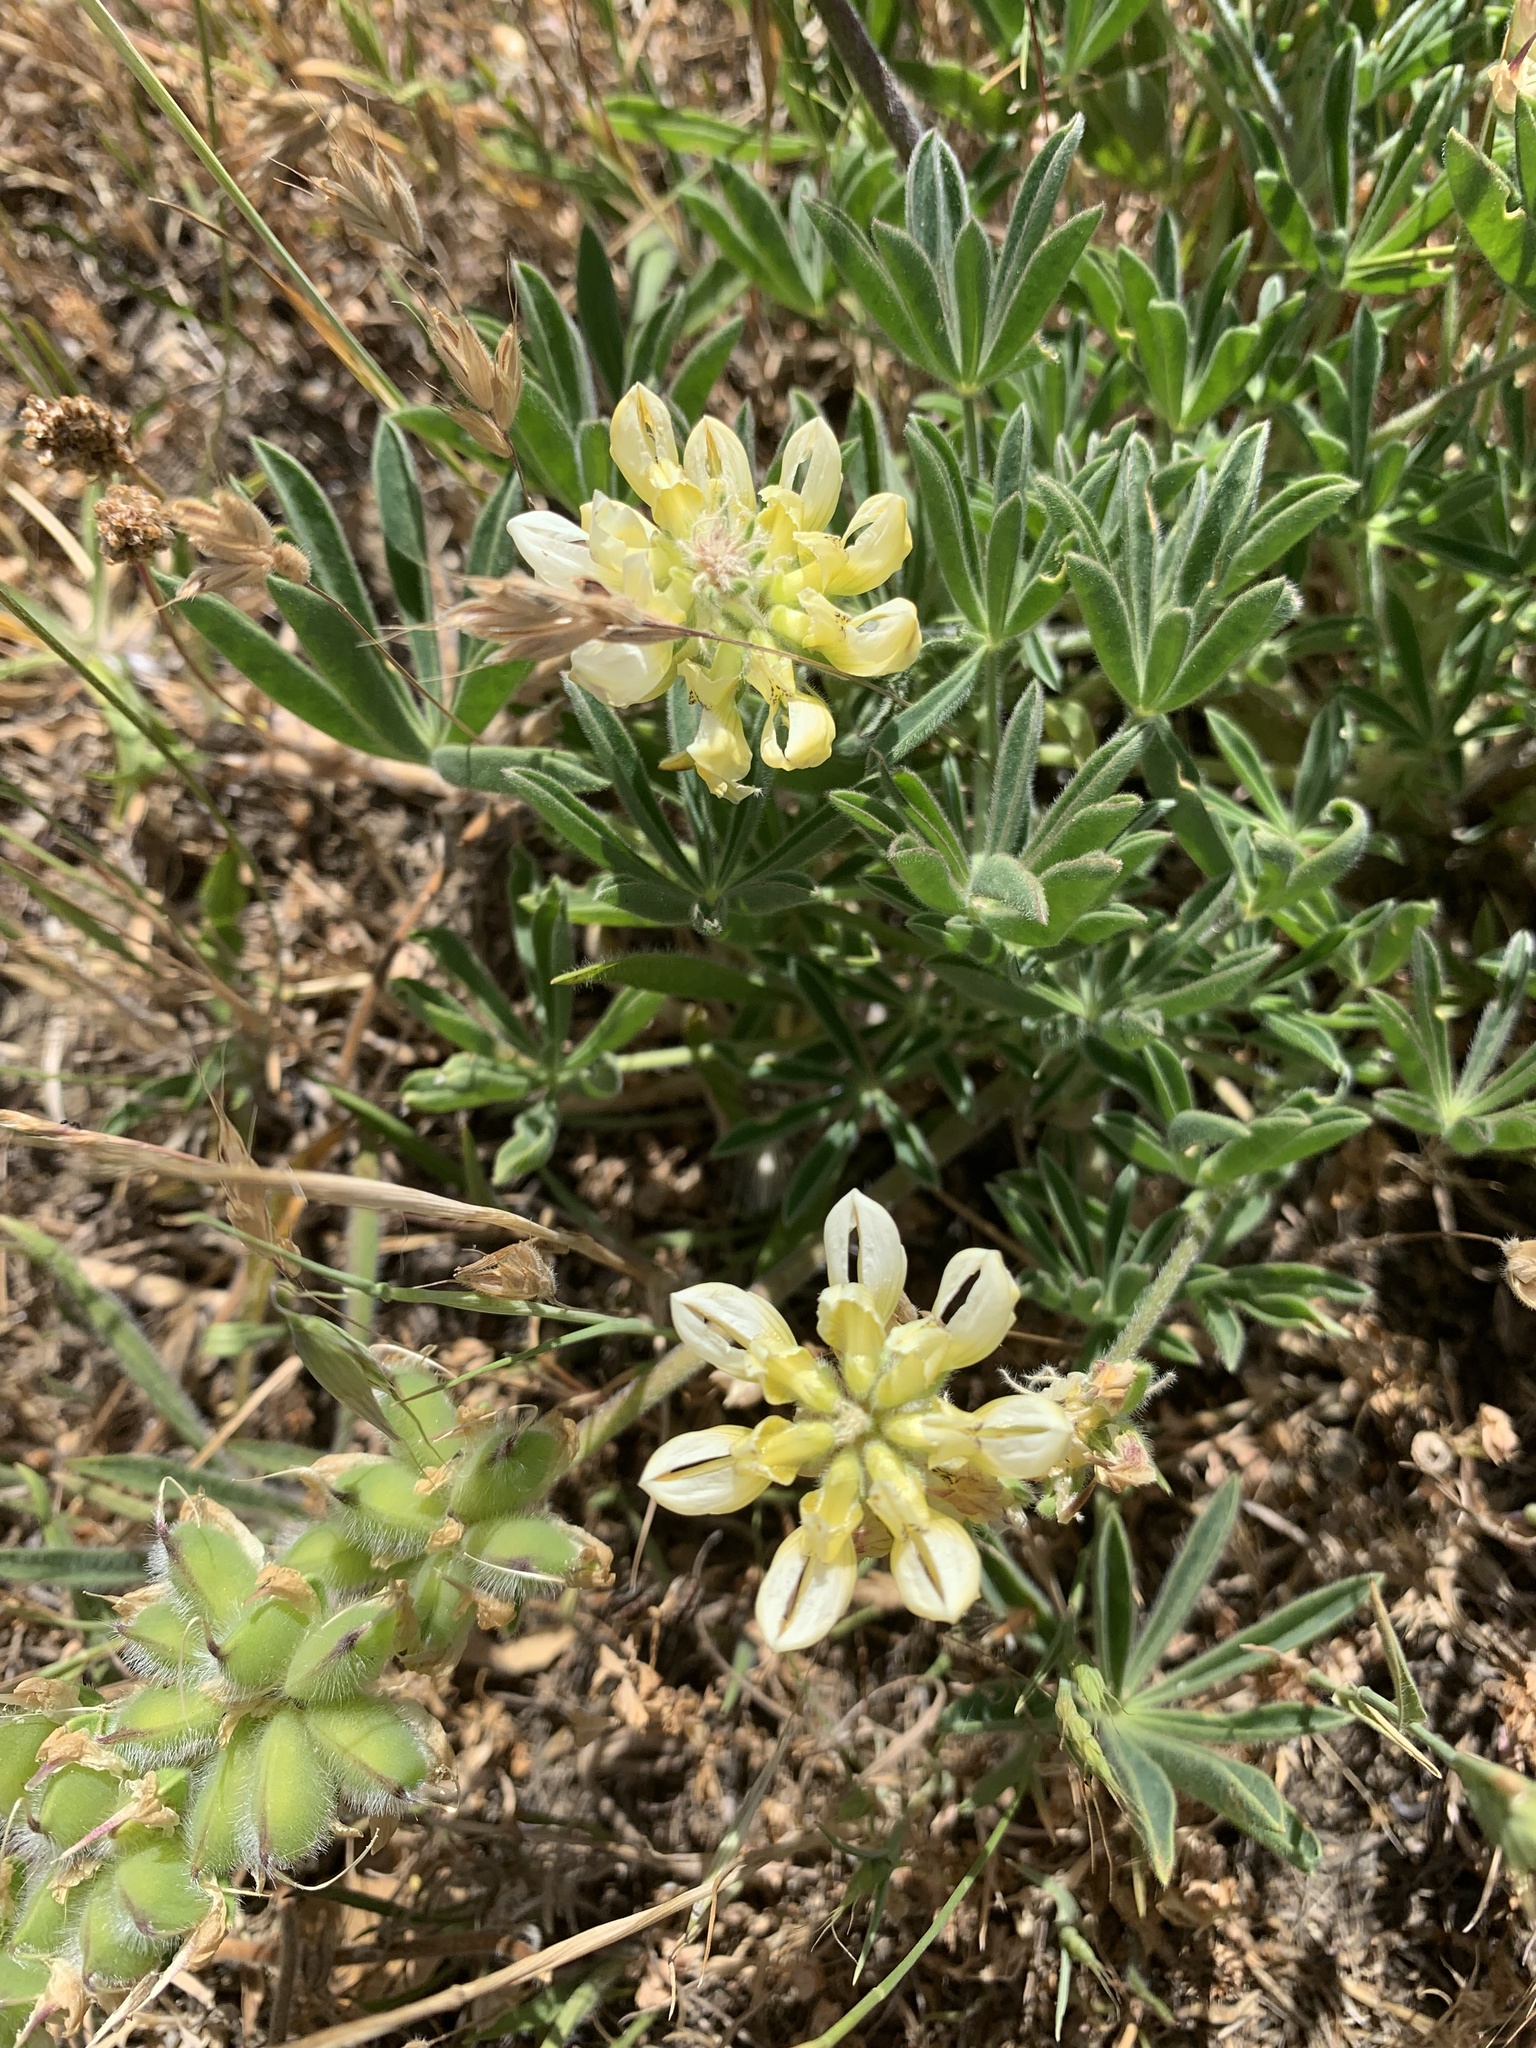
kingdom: Plantae
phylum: Tracheophyta
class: Magnoliopsida
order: Fabales
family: Fabaceae
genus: Lupinus
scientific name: Lupinus microcarpus
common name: Chick lupine
